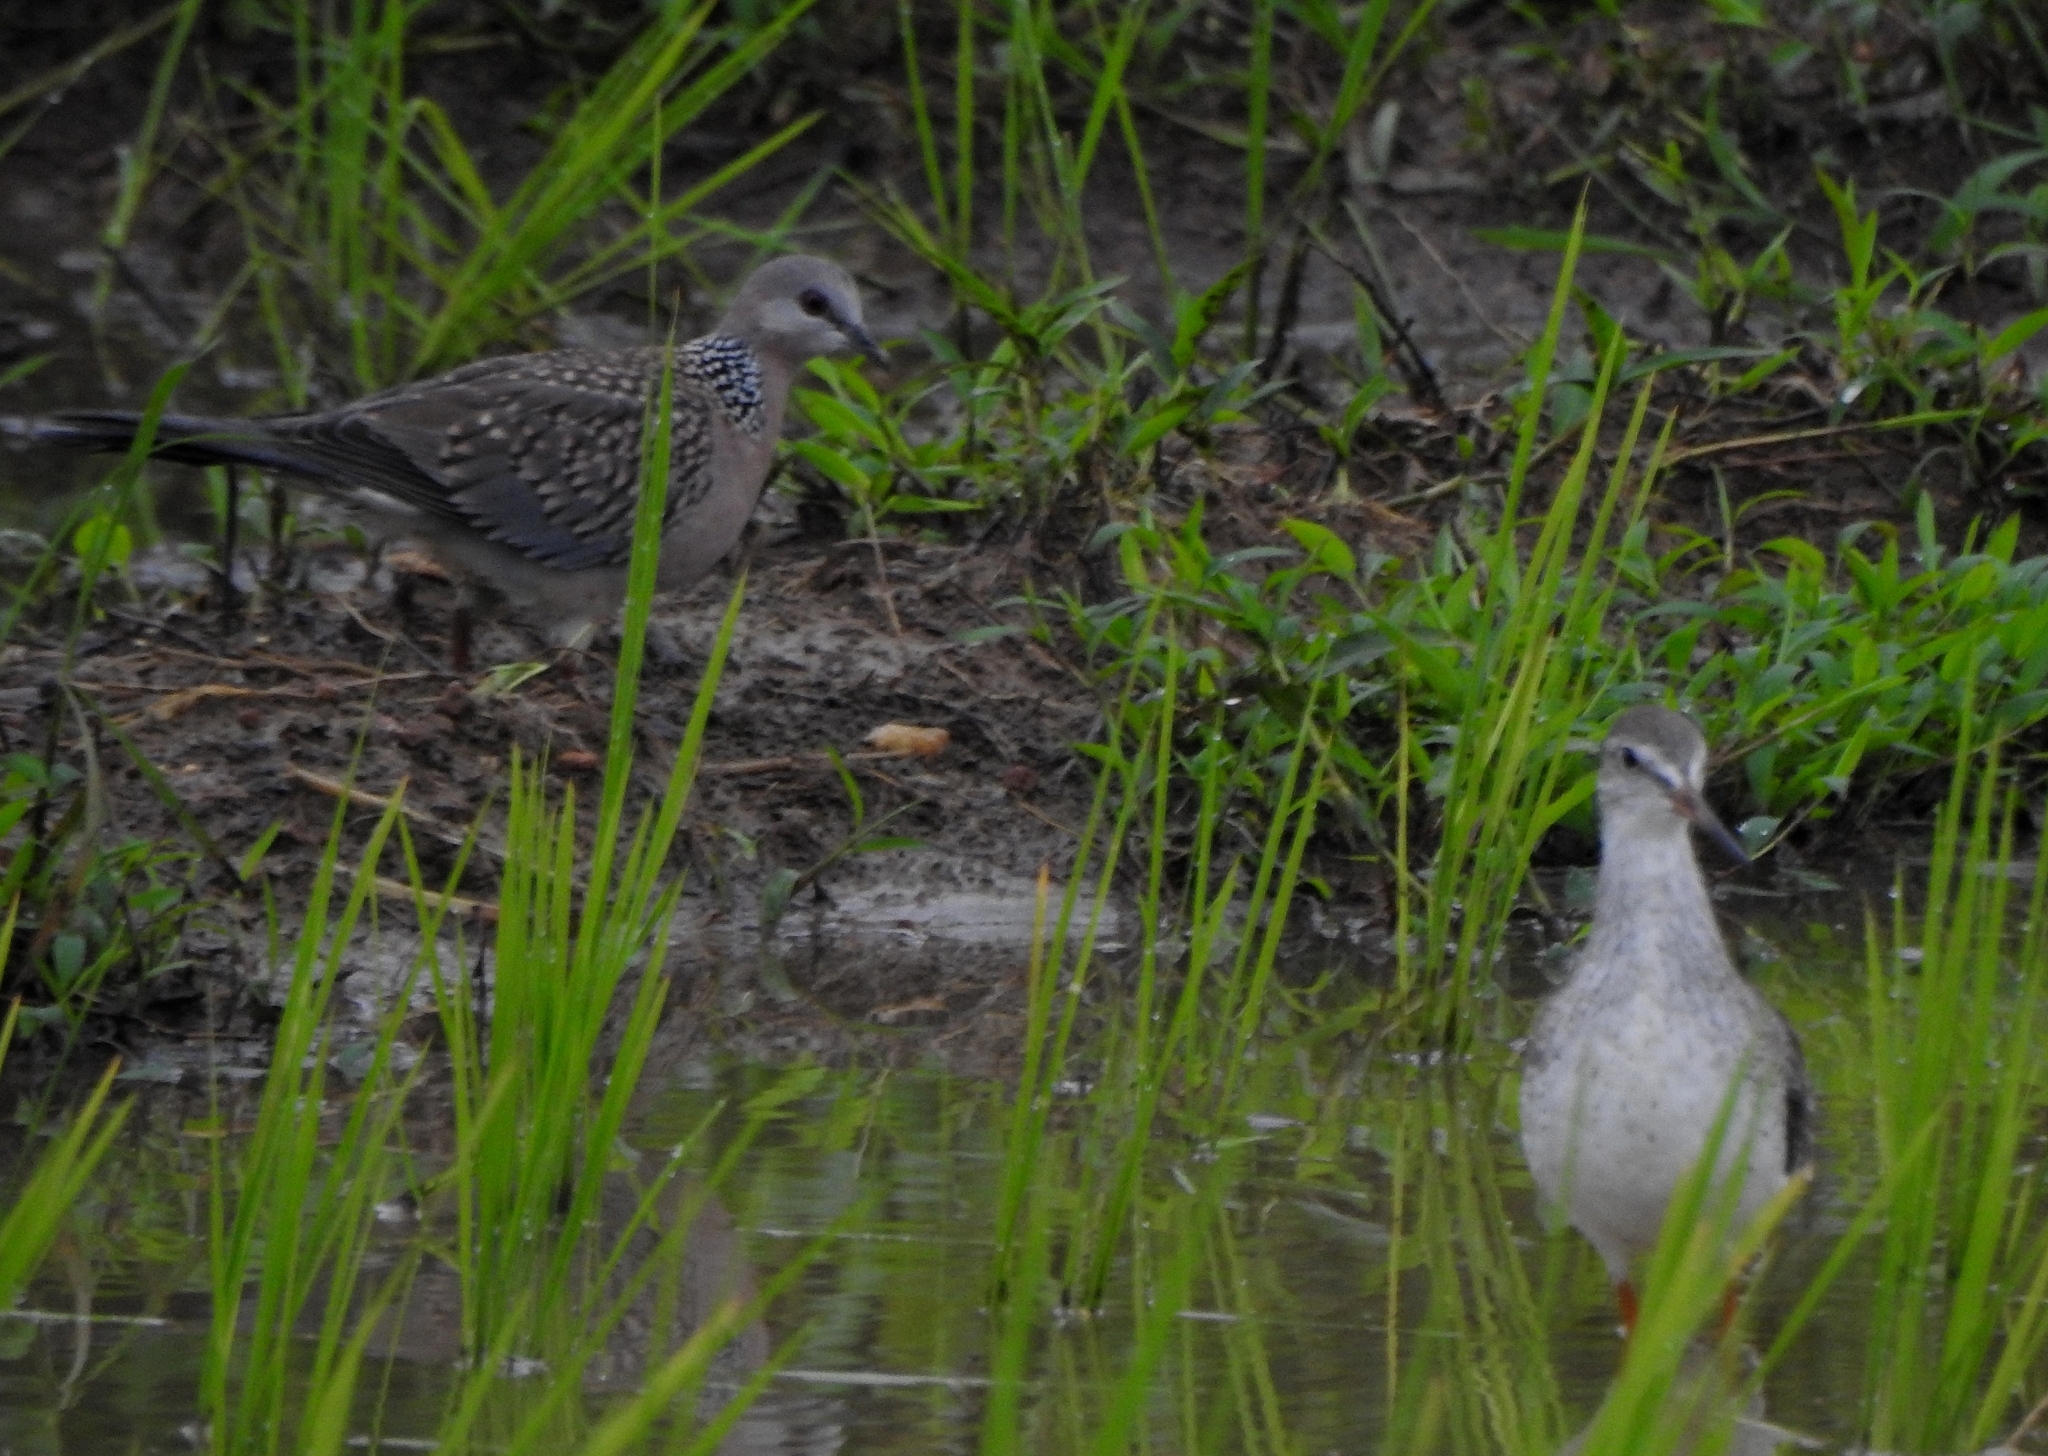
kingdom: Animalia
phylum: Chordata
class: Aves
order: Columbiformes
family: Columbidae
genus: Spilopelia
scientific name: Spilopelia chinensis
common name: Spotted dove
